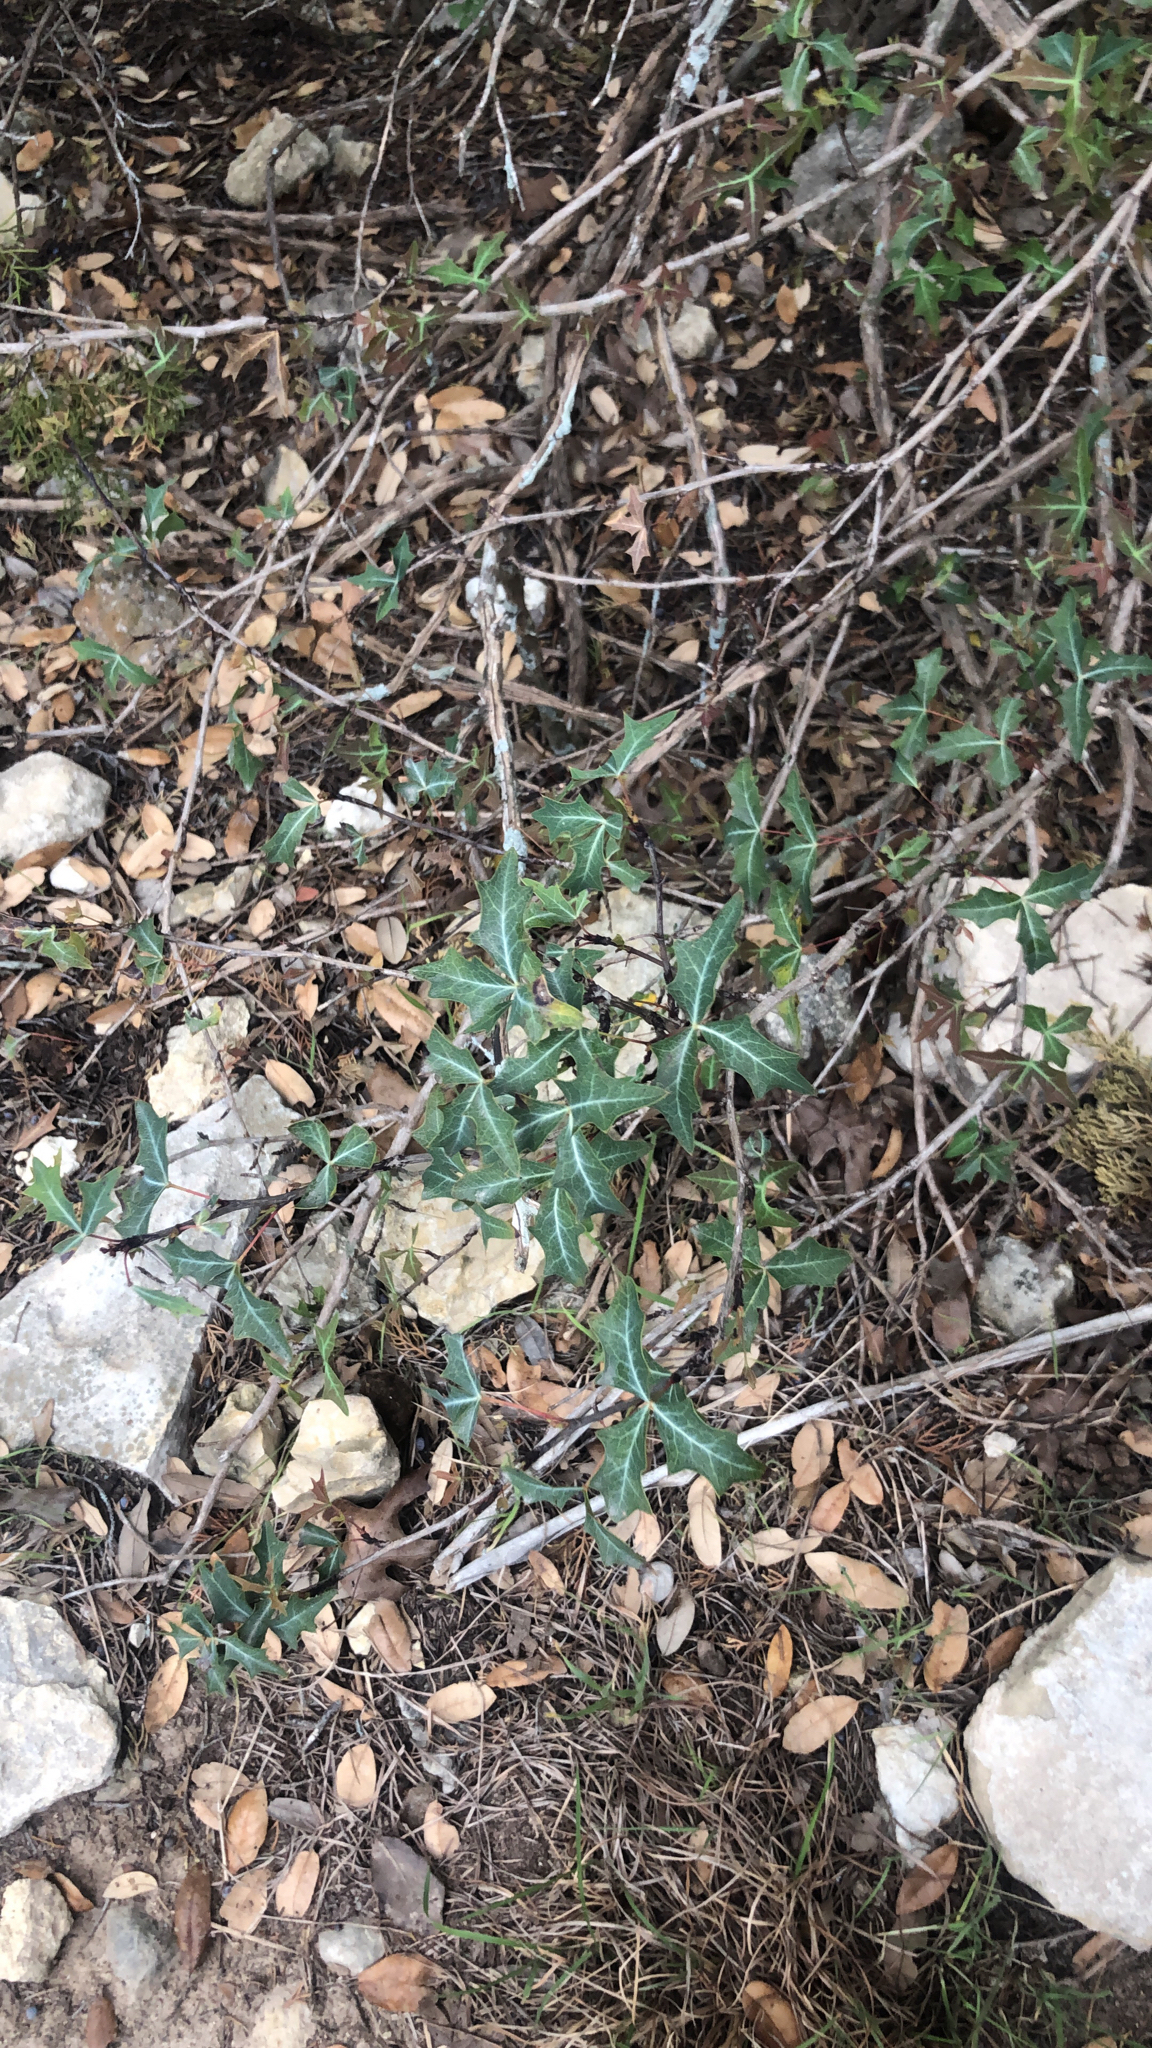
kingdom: Plantae
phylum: Tracheophyta
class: Magnoliopsida
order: Ranunculales
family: Berberidaceae
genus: Alloberberis
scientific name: Alloberberis trifoliolata
